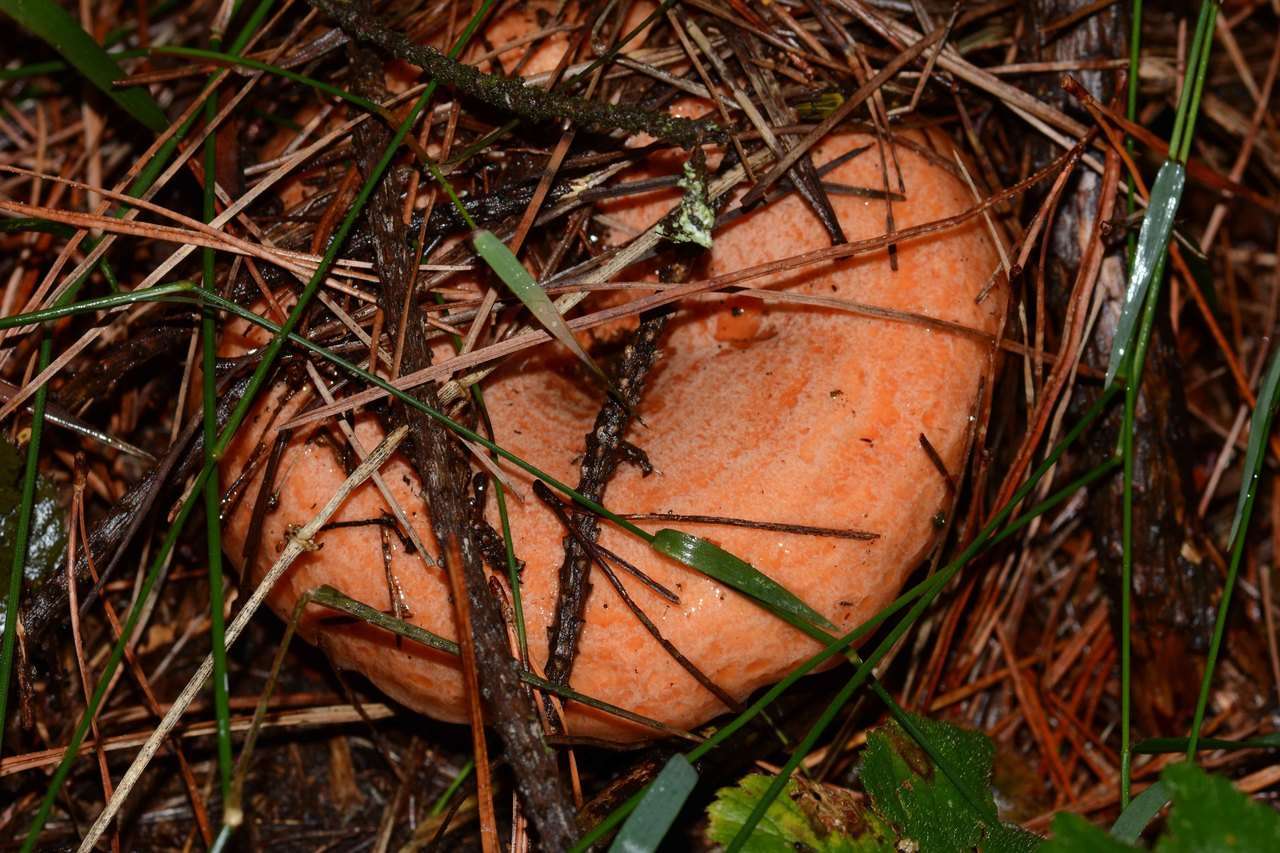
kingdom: Fungi
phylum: Basidiomycota
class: Agaricomycetes
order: Russulales
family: Russulaceae
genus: Lactarius
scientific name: Lactarius deliciosus
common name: Saffron milk-cap
